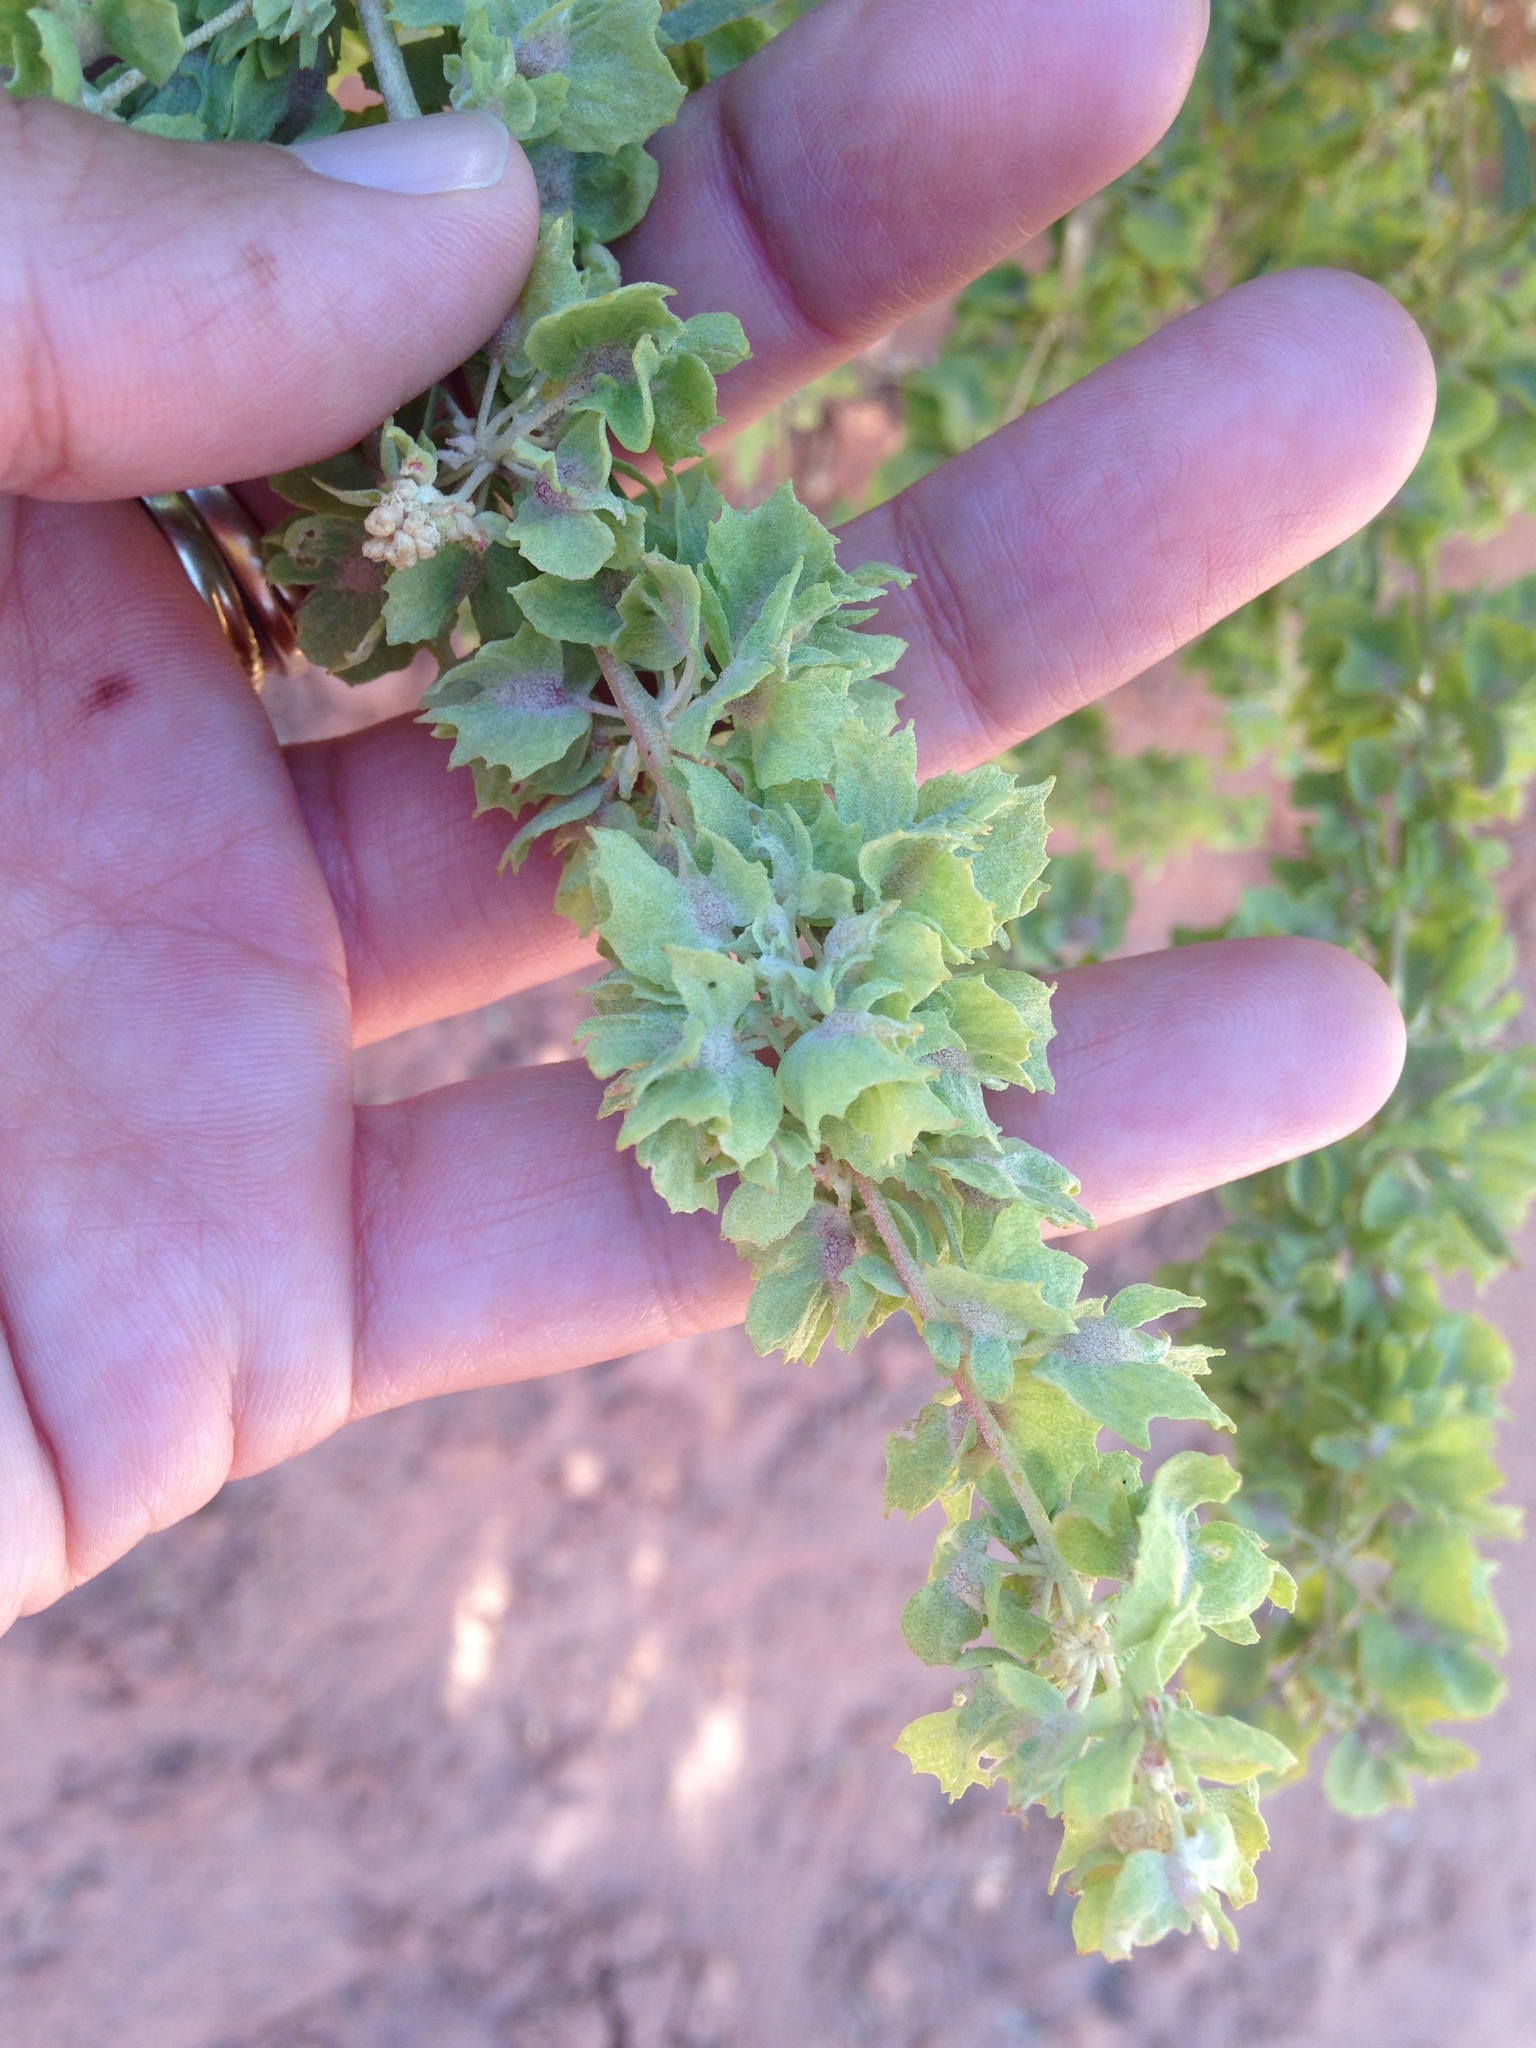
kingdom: Plantae
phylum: Tracheophyta
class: Magnoliopsida
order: Caryophyllales
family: Amaranthaceae
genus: Atriplex
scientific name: Atriplex canescens
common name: Four-wing saltbush
